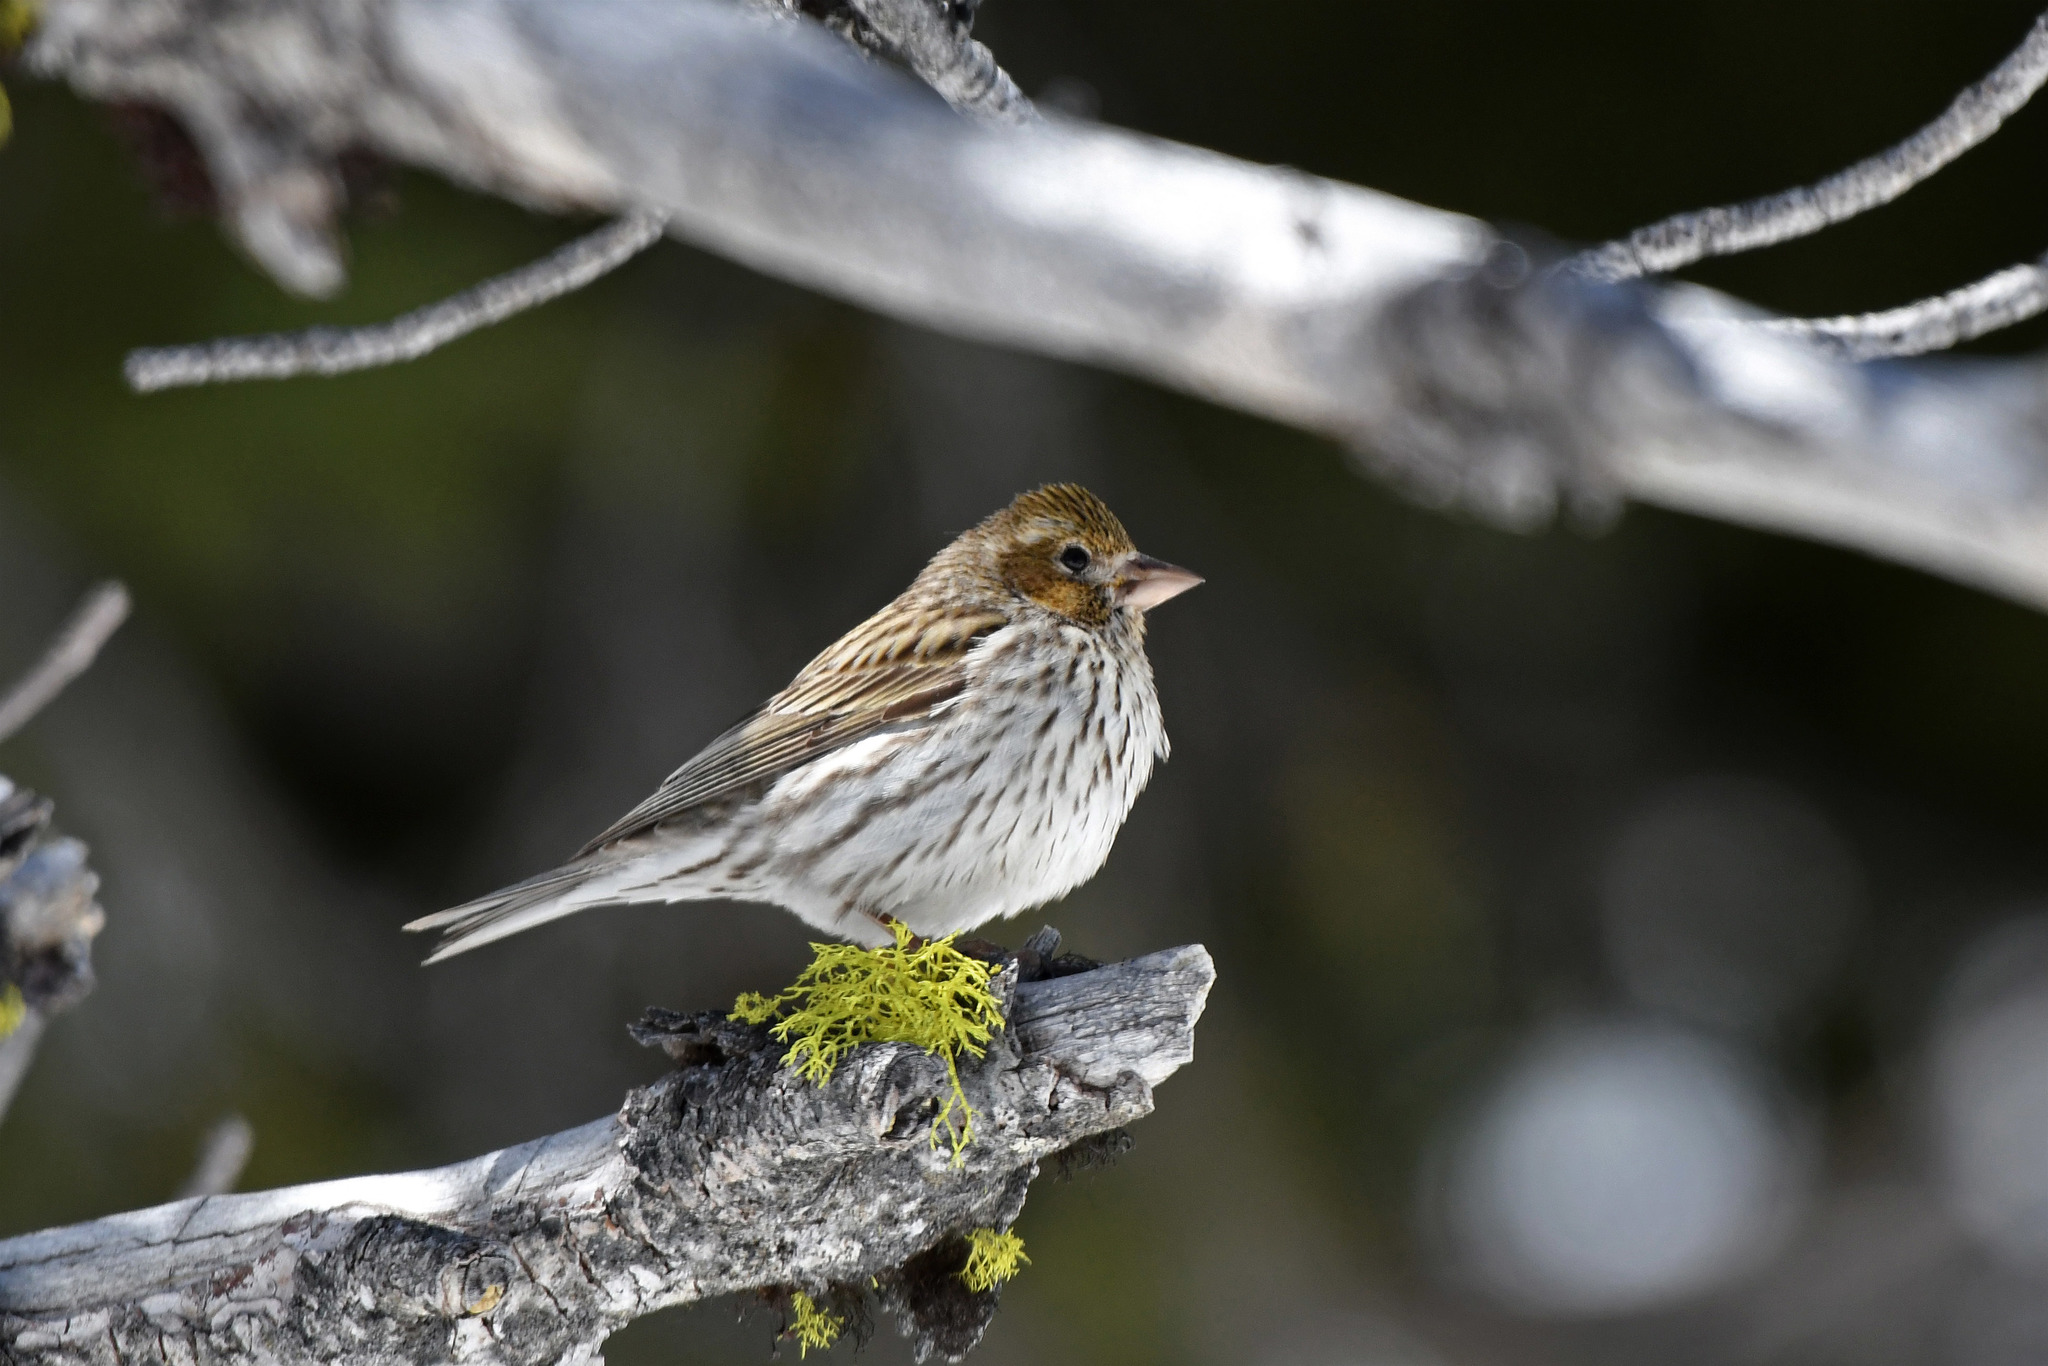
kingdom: Animalia
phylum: Chordata
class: Aves
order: Passeriformes
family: Fringillidae
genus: Haemorhous
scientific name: Haemorhous cassinii
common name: Cassin's finch
